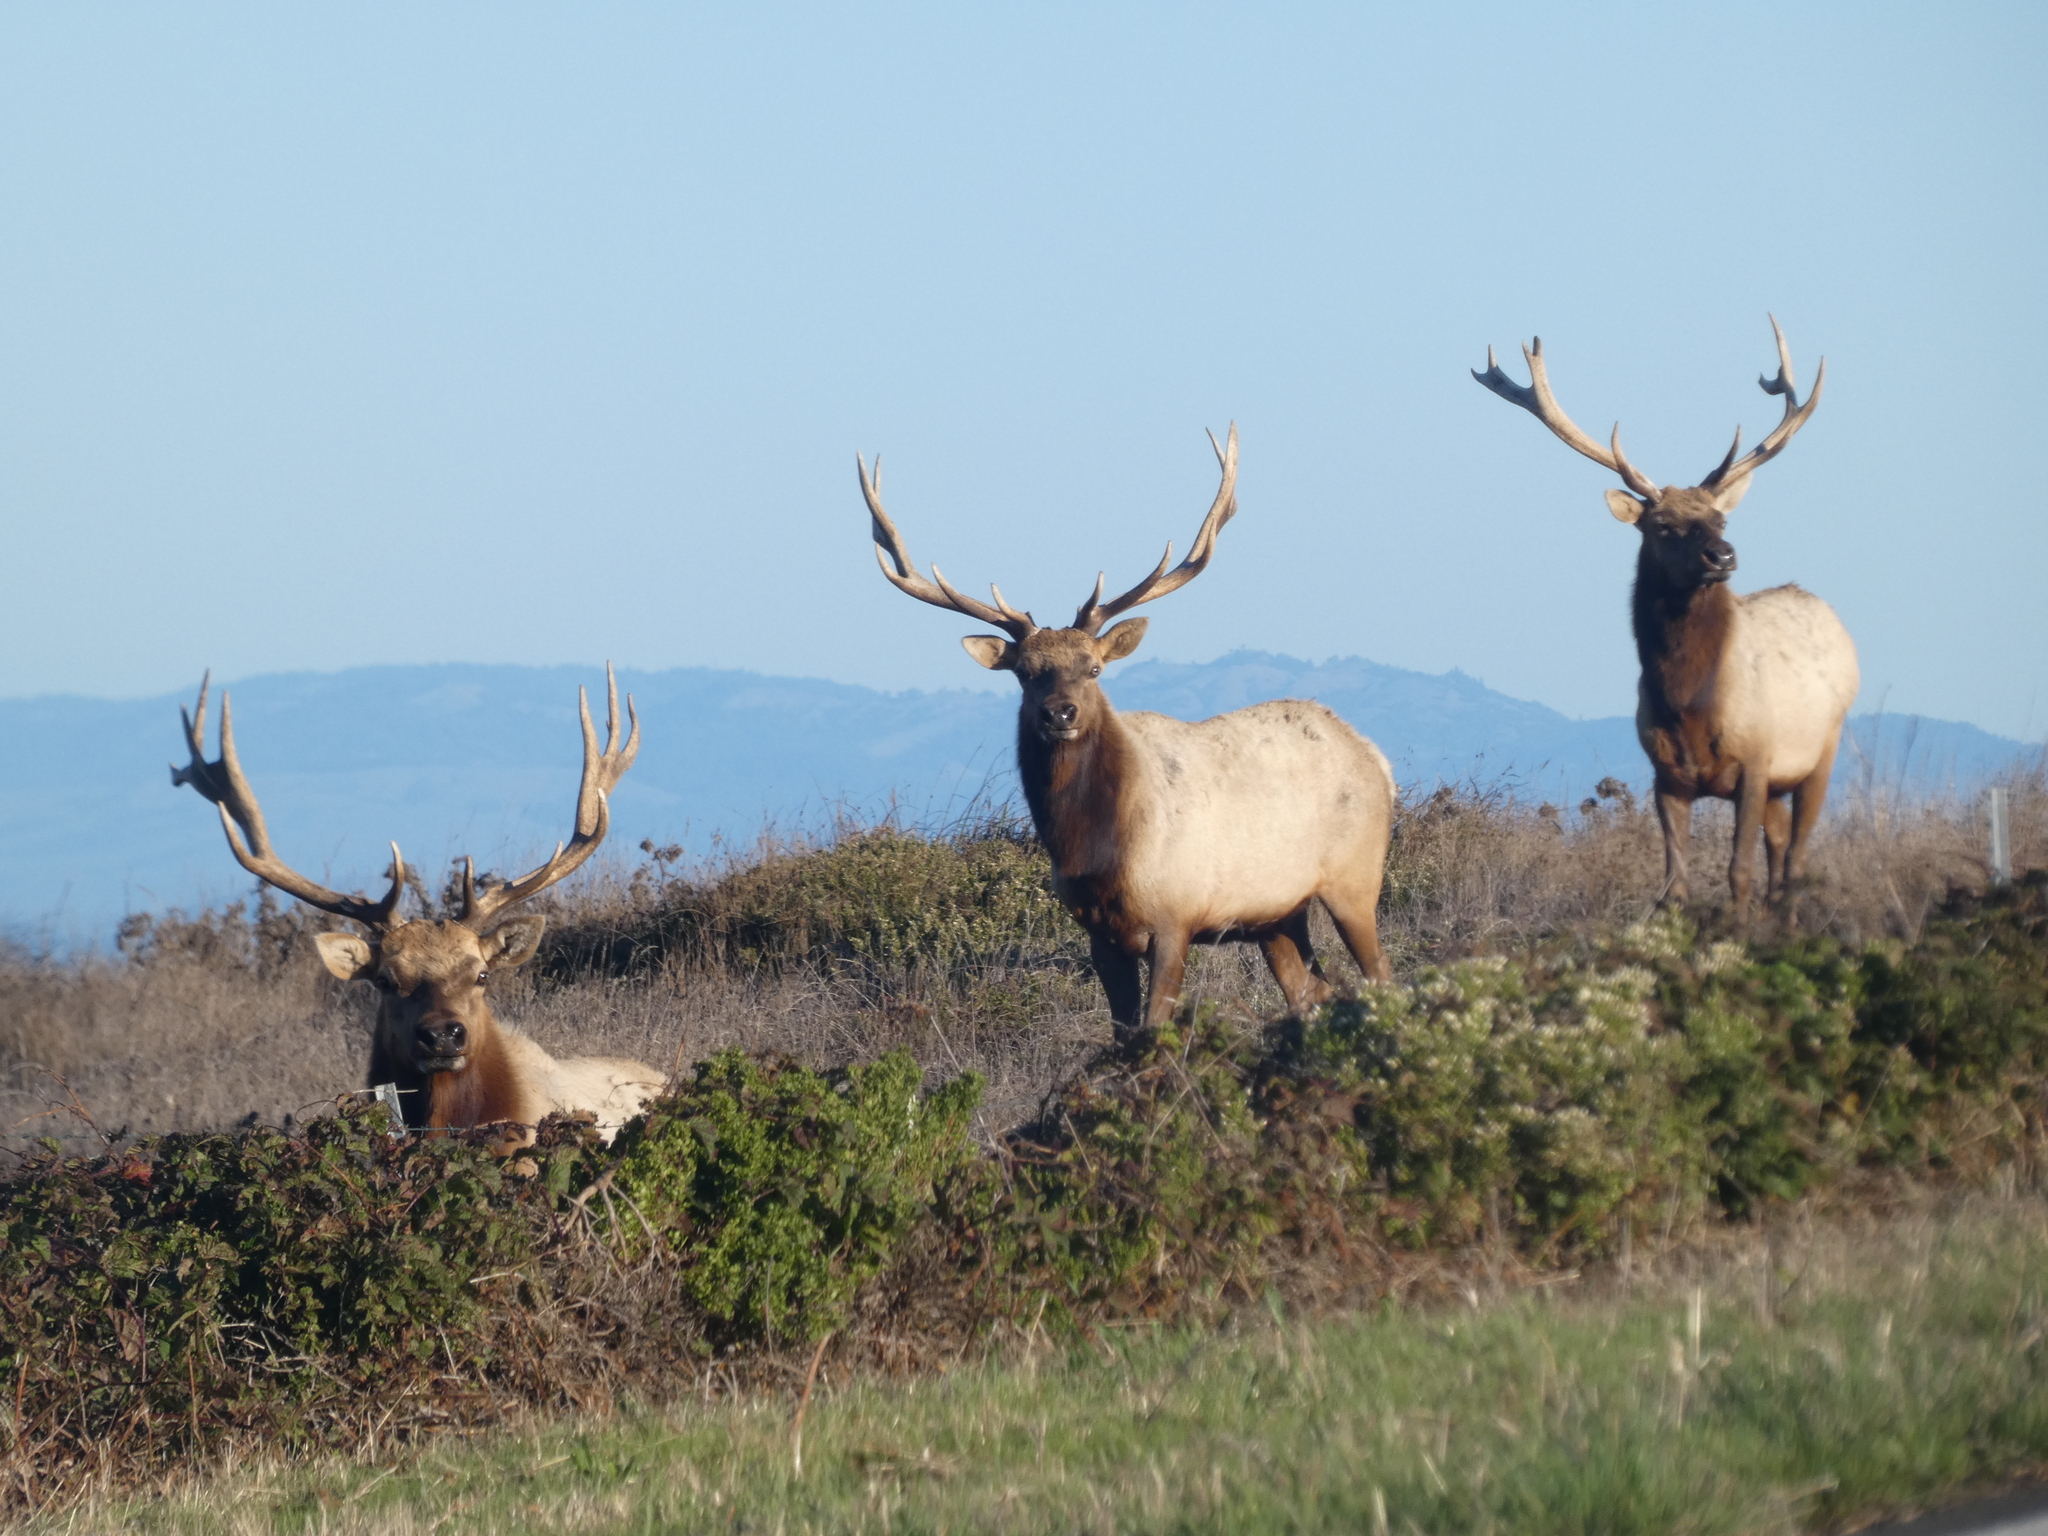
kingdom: Animalia
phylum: Chordata
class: Mammalia
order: Artiodactyla
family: Cervidae
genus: Cervus
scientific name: Cervus elaphus
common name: Red deer
